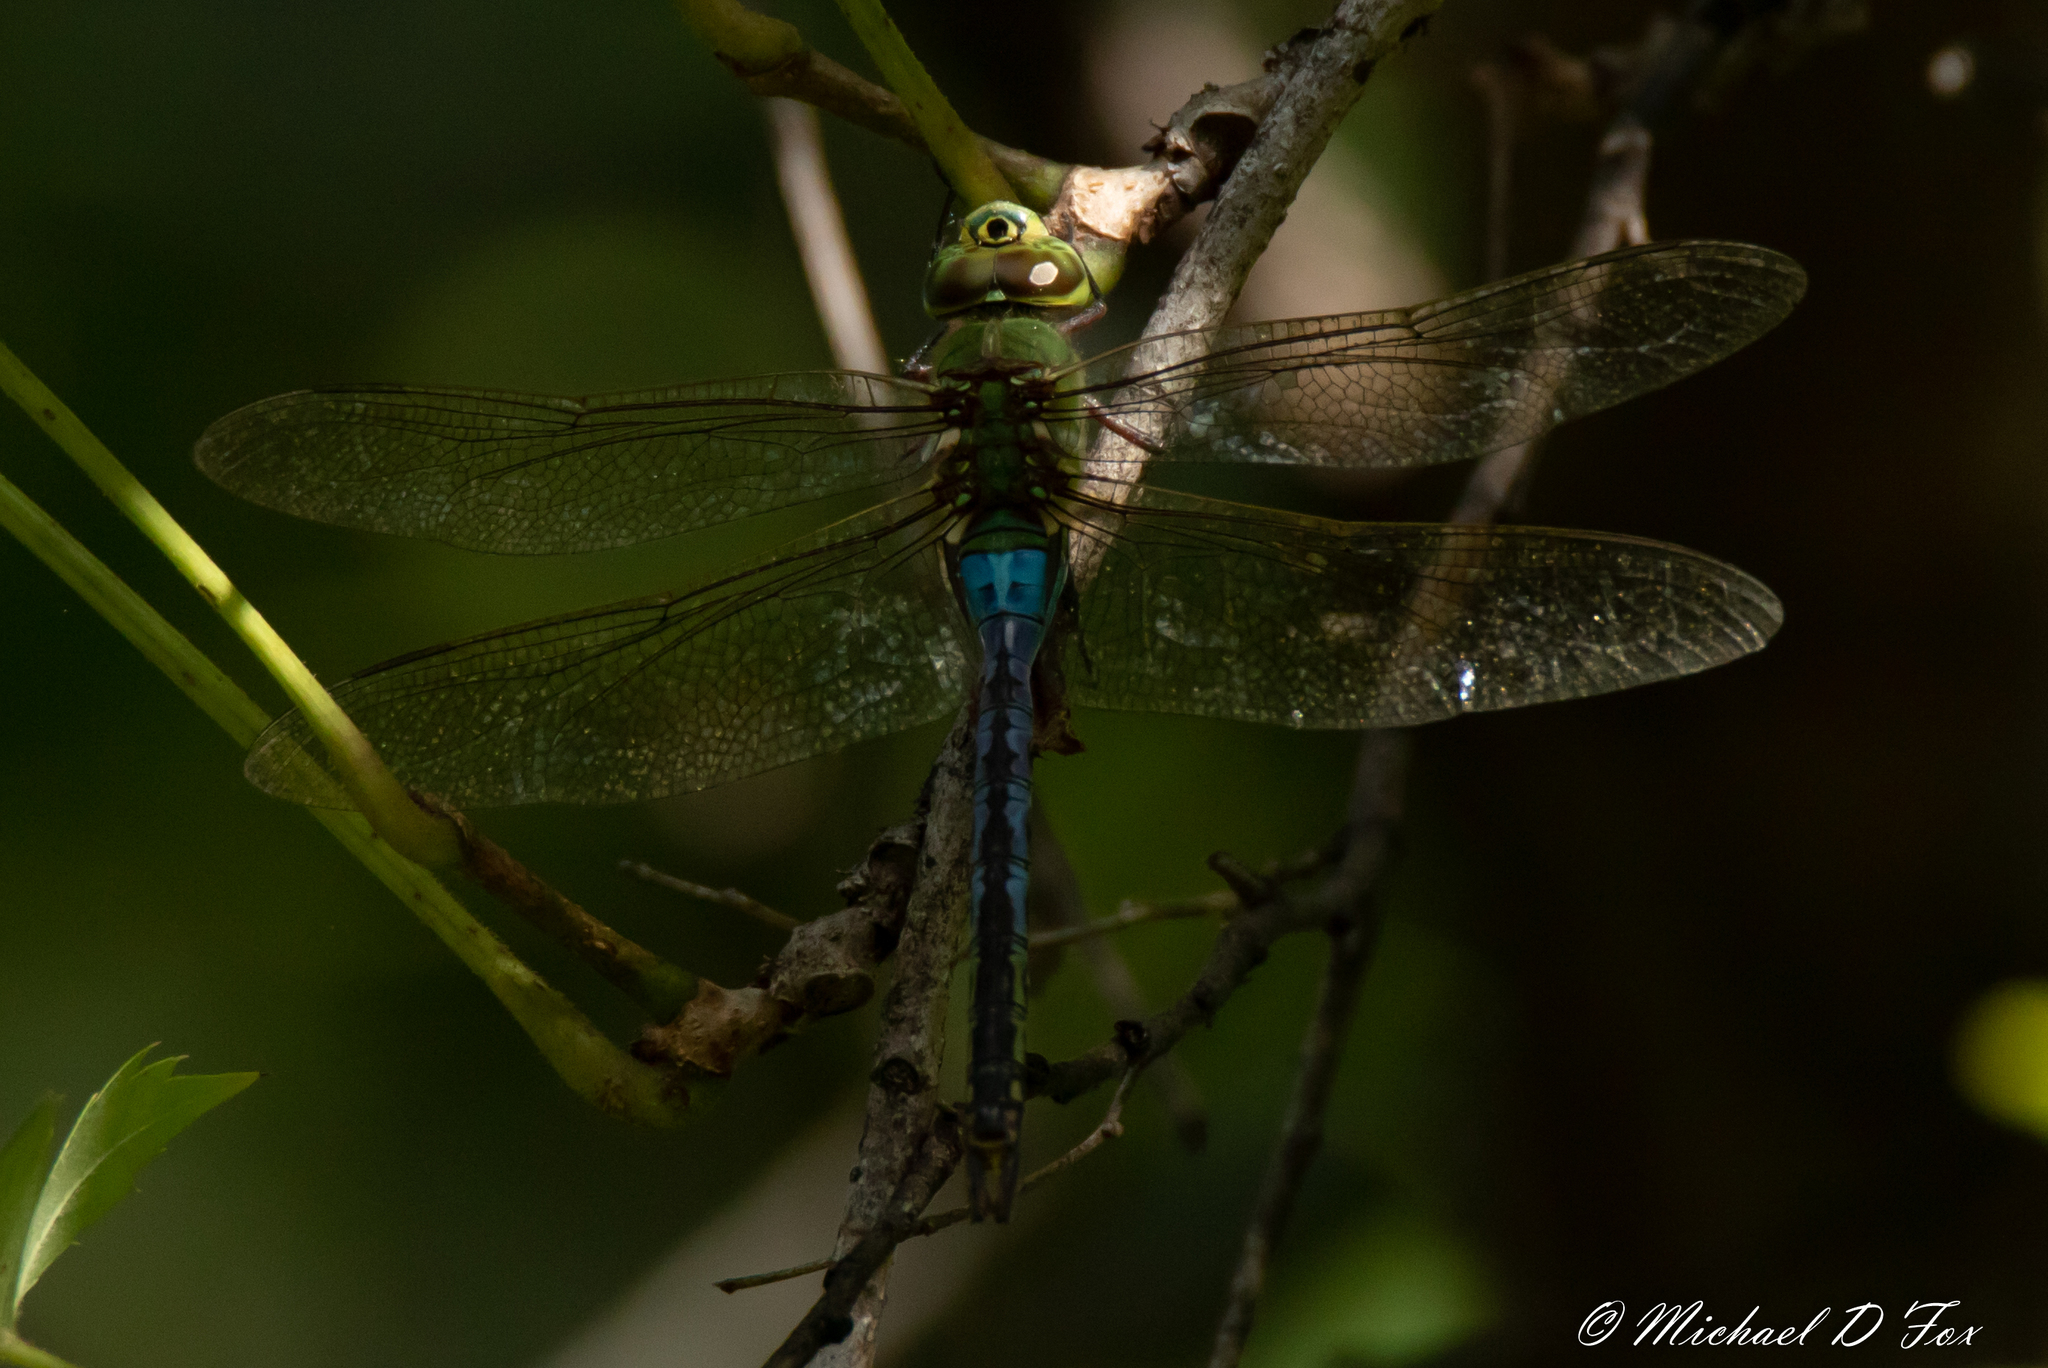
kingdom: Animalia
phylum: Arthropoda
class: Insecta
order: Odonata
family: Aeshnidae
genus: Anax
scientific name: Anax junius
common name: Common green darner
